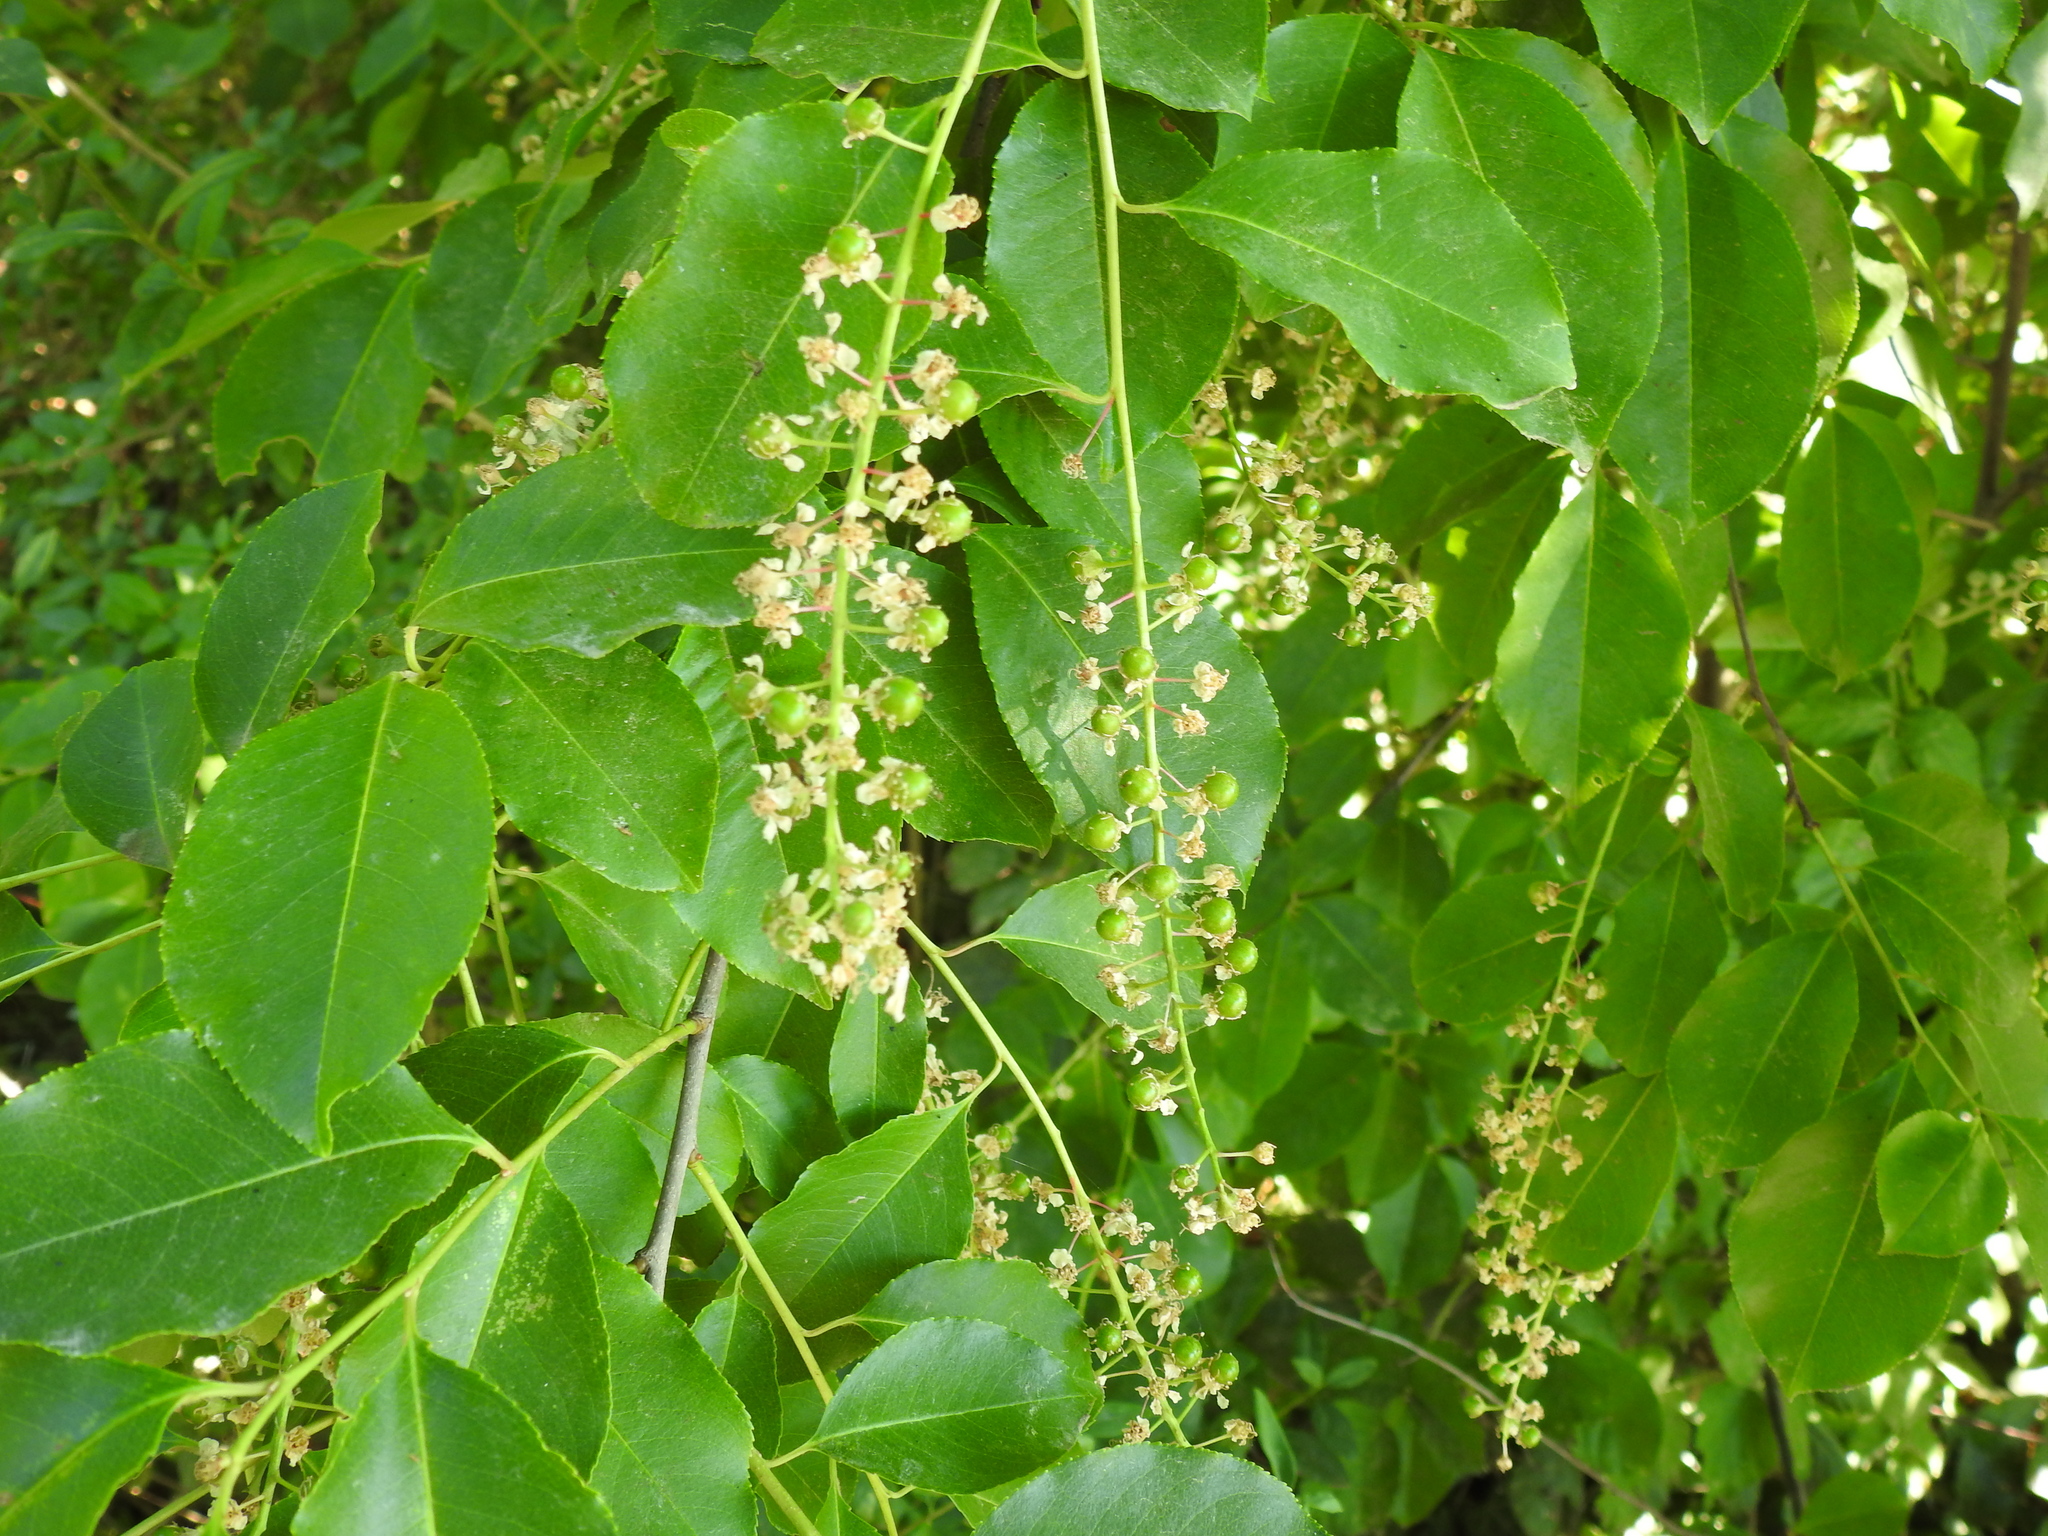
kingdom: Plantae
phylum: Tracheophyta
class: Magnoliopsida
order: Rosales
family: Rosaceae
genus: Prunus
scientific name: Prunus serotina
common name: Black cherry
